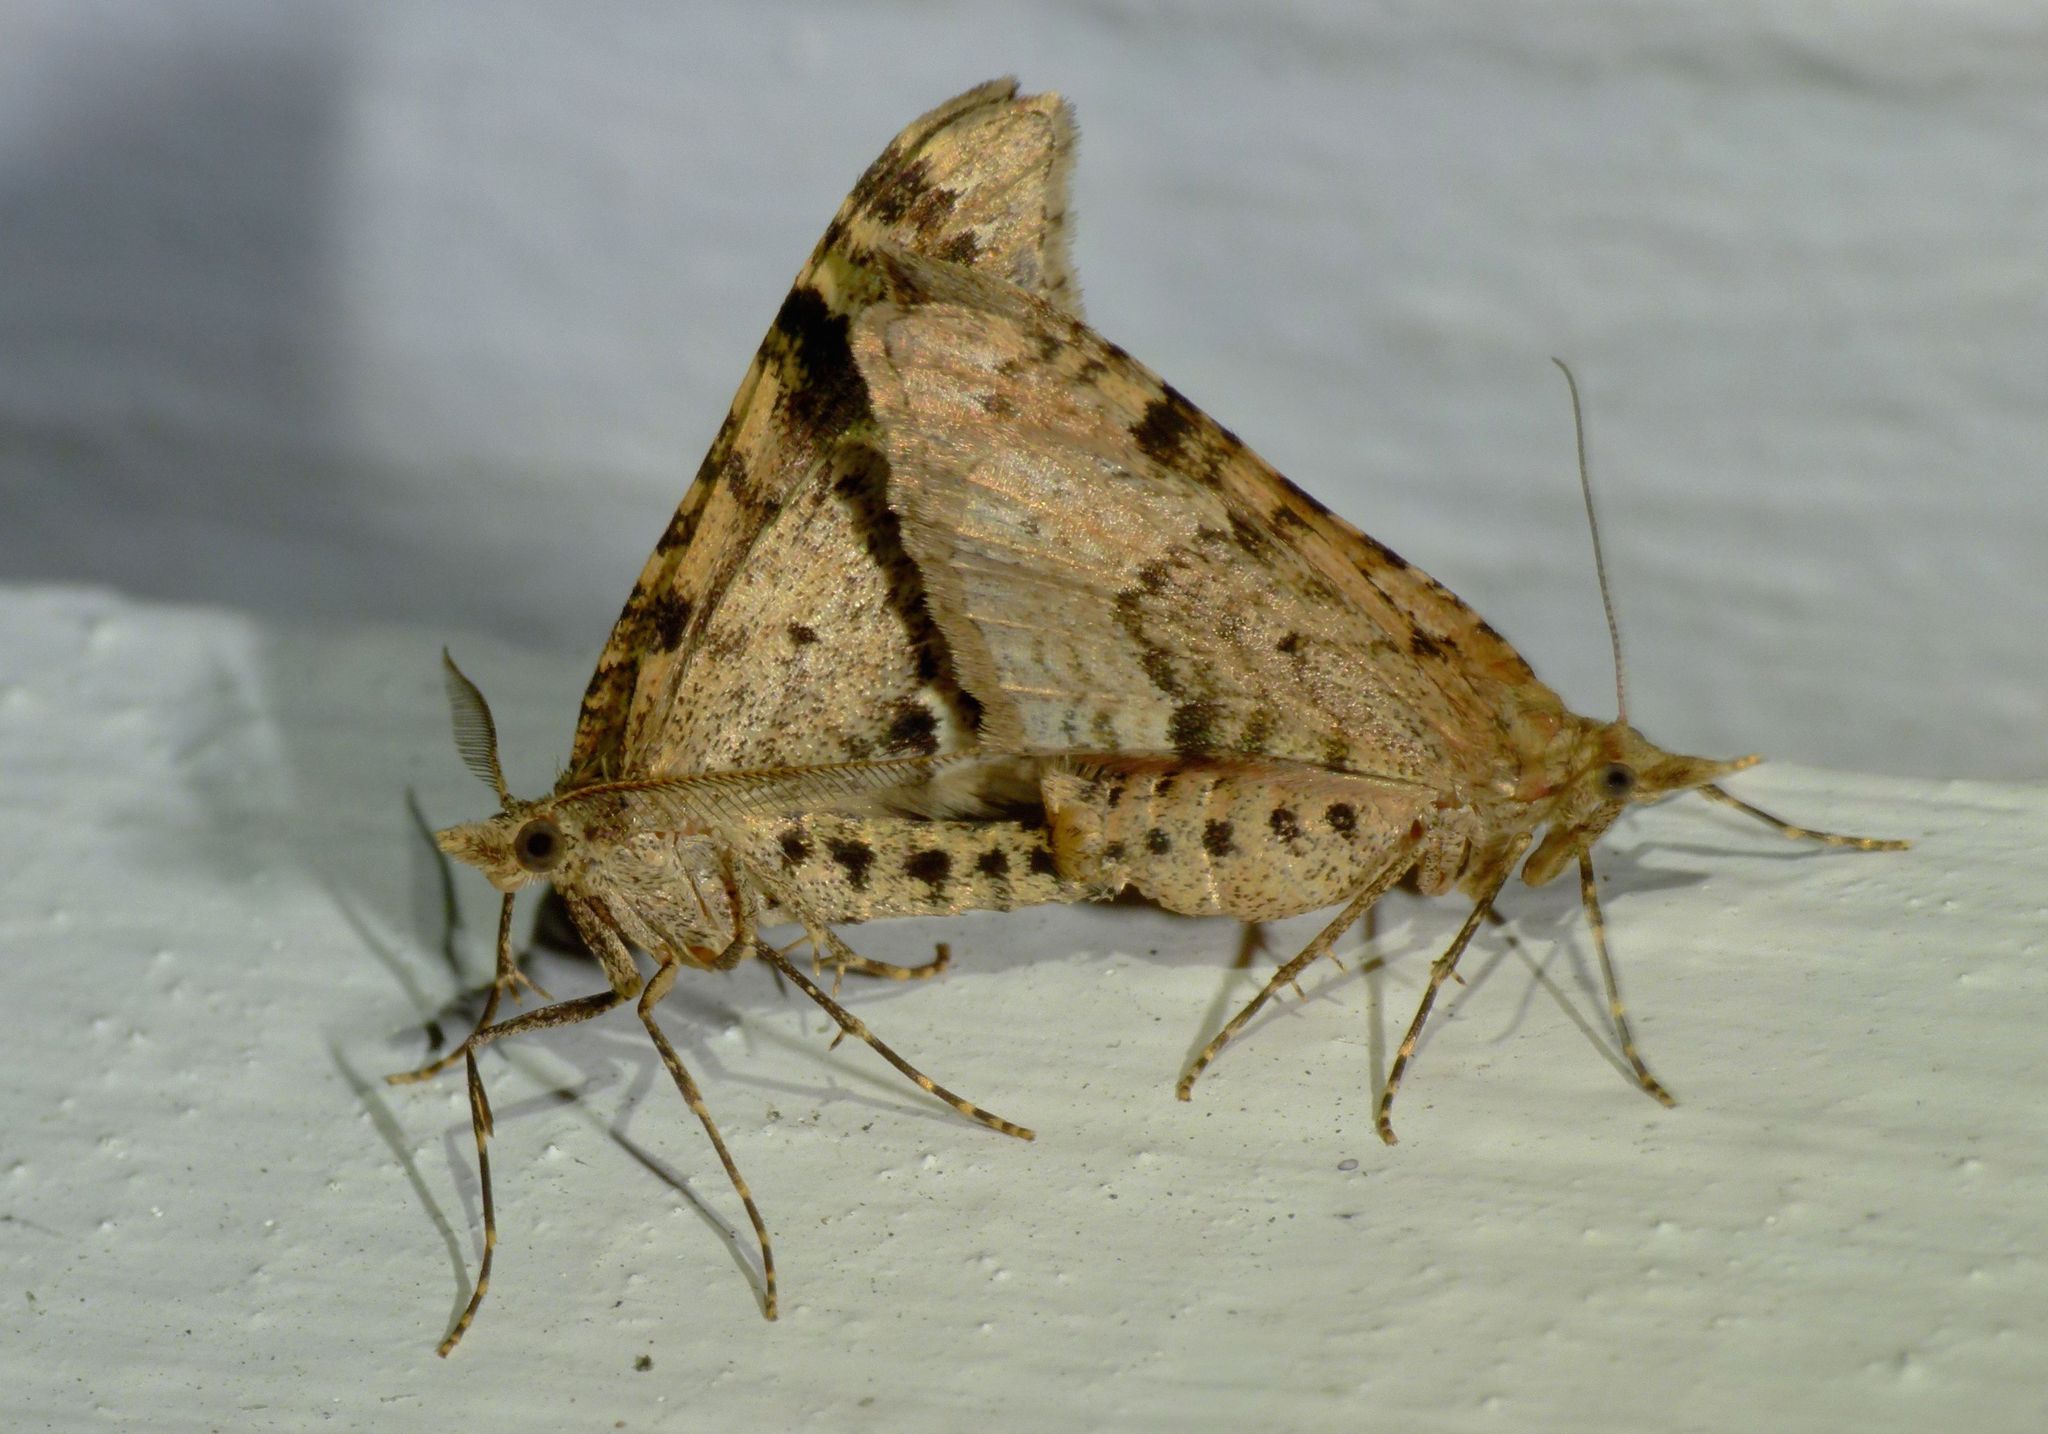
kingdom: Animalia
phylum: Arthropoda
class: Insecta
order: Lepidoptera
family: Geometridae
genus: Homodotis
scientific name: Homodotis falcata
